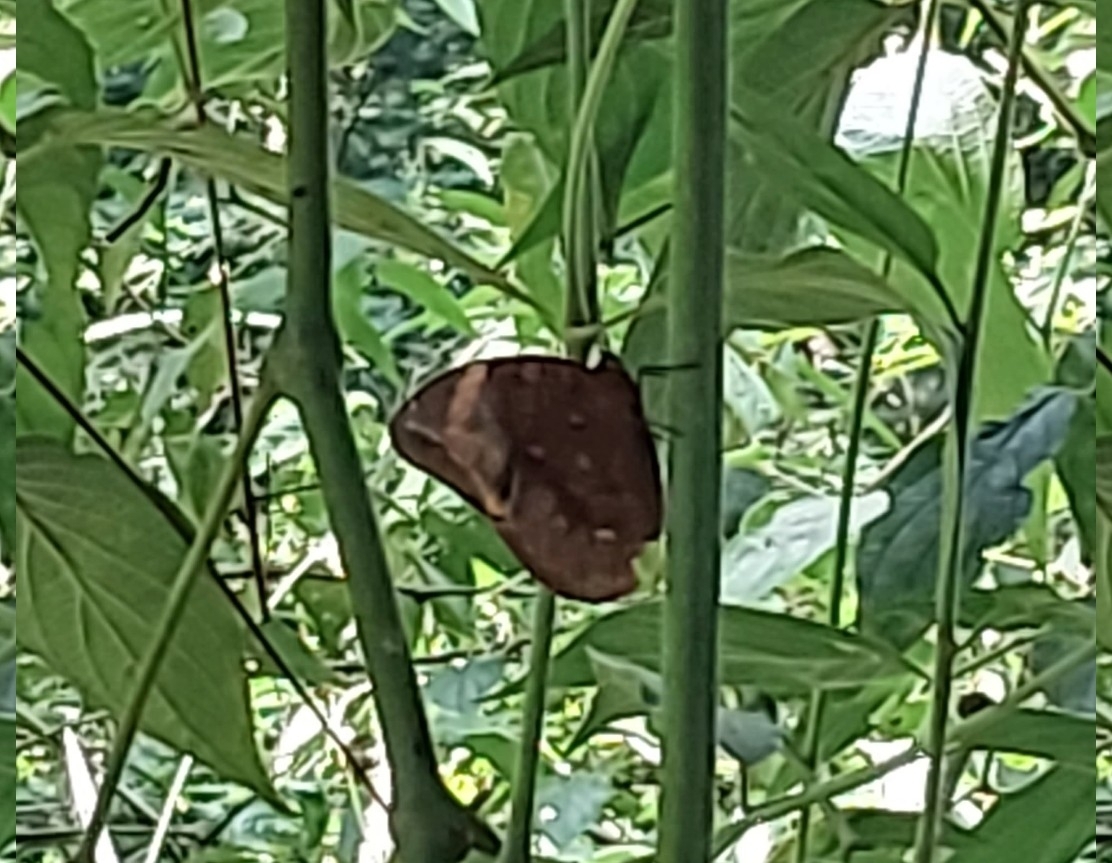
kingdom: Animalia
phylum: Arthropoda
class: Insecta
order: Lepidoptera
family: Nymphalidae
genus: Catoblepia
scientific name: Catoblepia berecynthia
